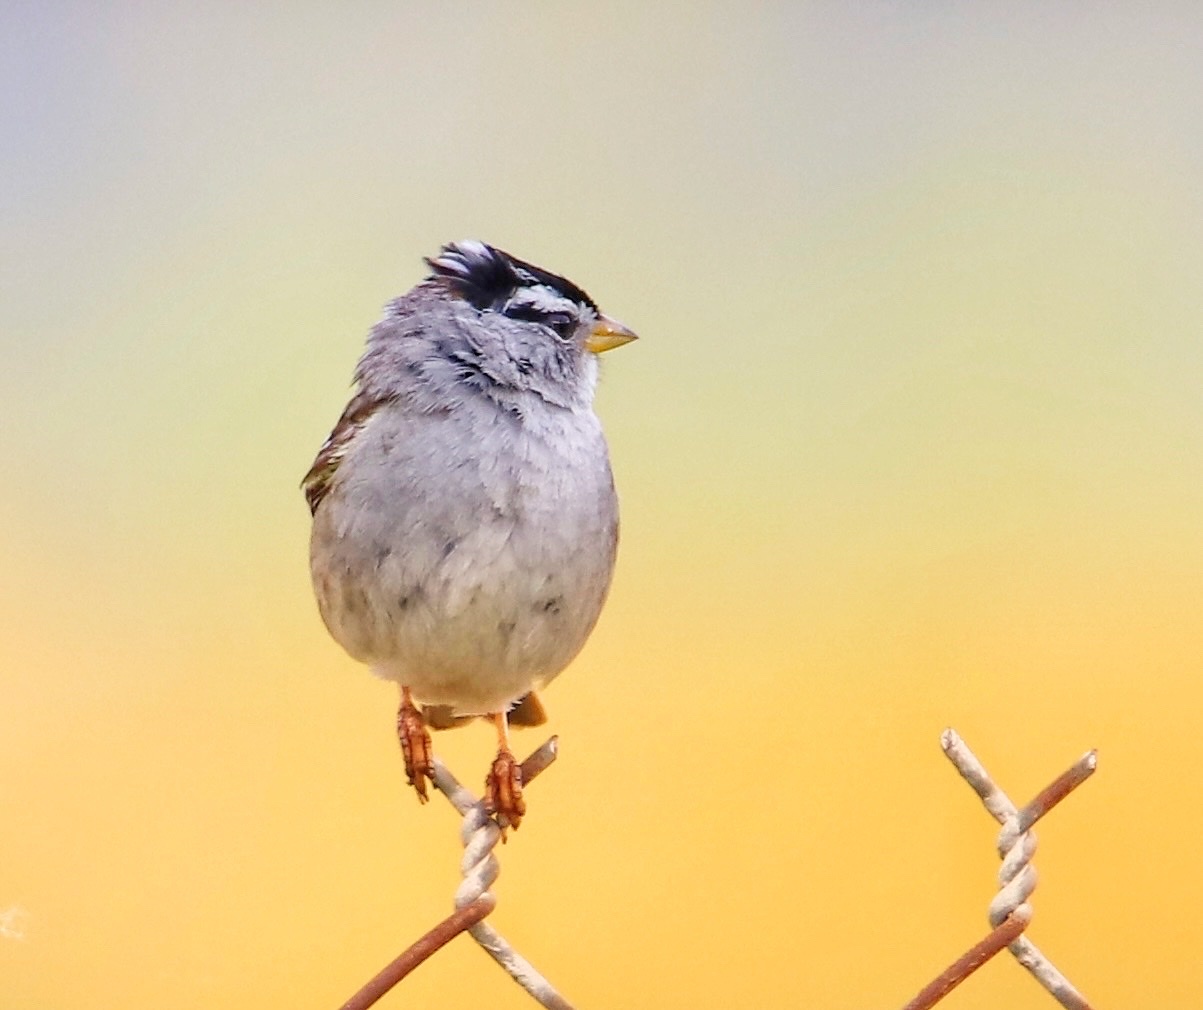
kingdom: Animalia
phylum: Chordata
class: Aves
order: Passeriformes
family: Passerellidae
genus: Zonotrichia
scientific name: Zonotrichia leucophrys
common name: White-crowned sparrow
